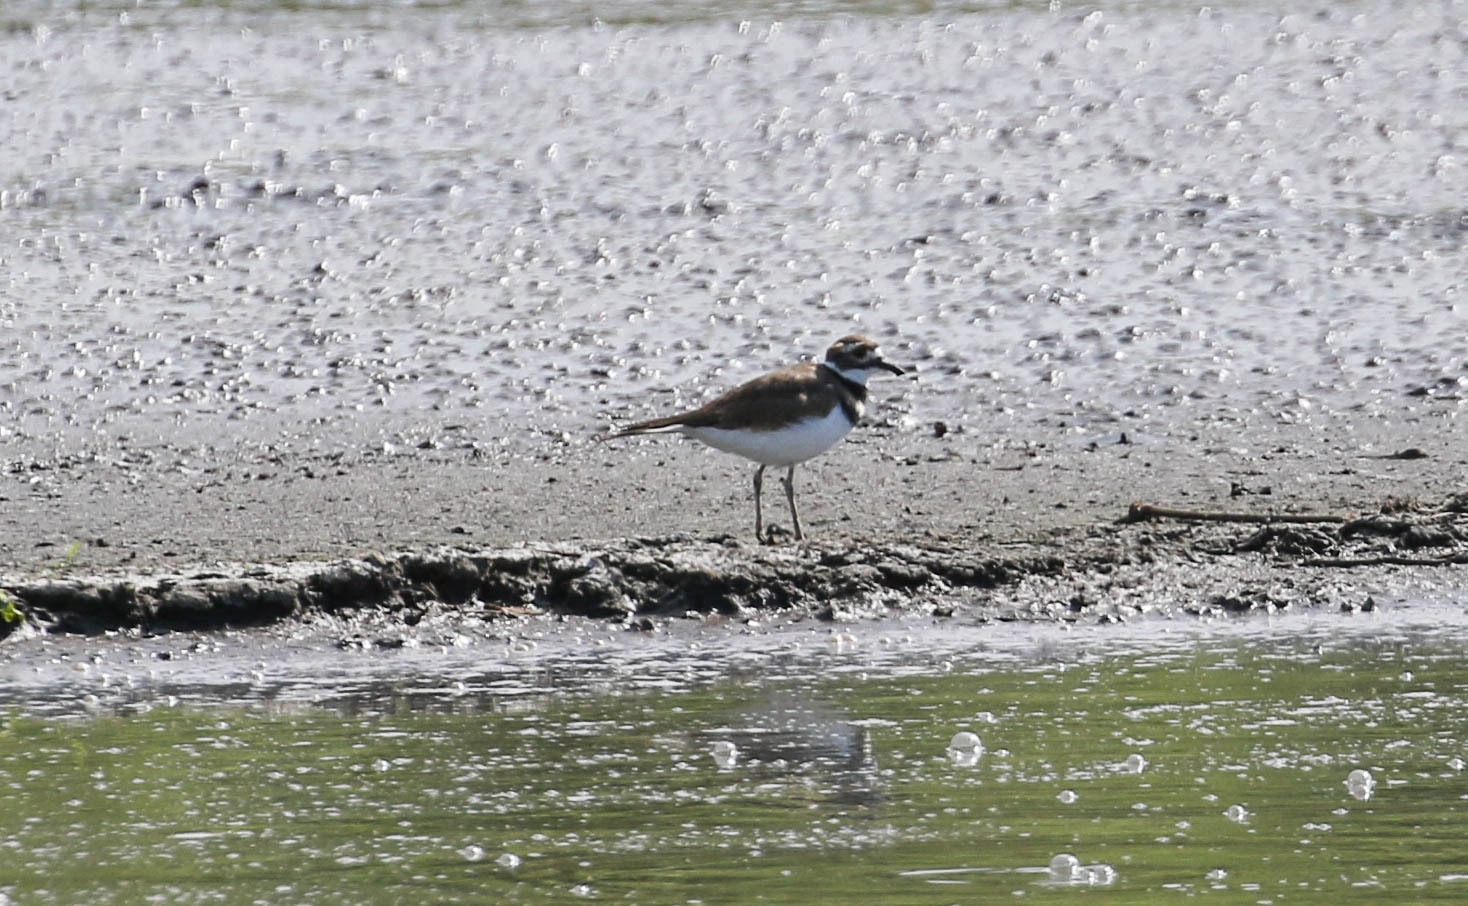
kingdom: Animalia
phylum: Chordata
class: Aves
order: Charadriiformes
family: Charadriidae
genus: Charadrius
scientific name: Charadrius vociferus
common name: Killdeer
